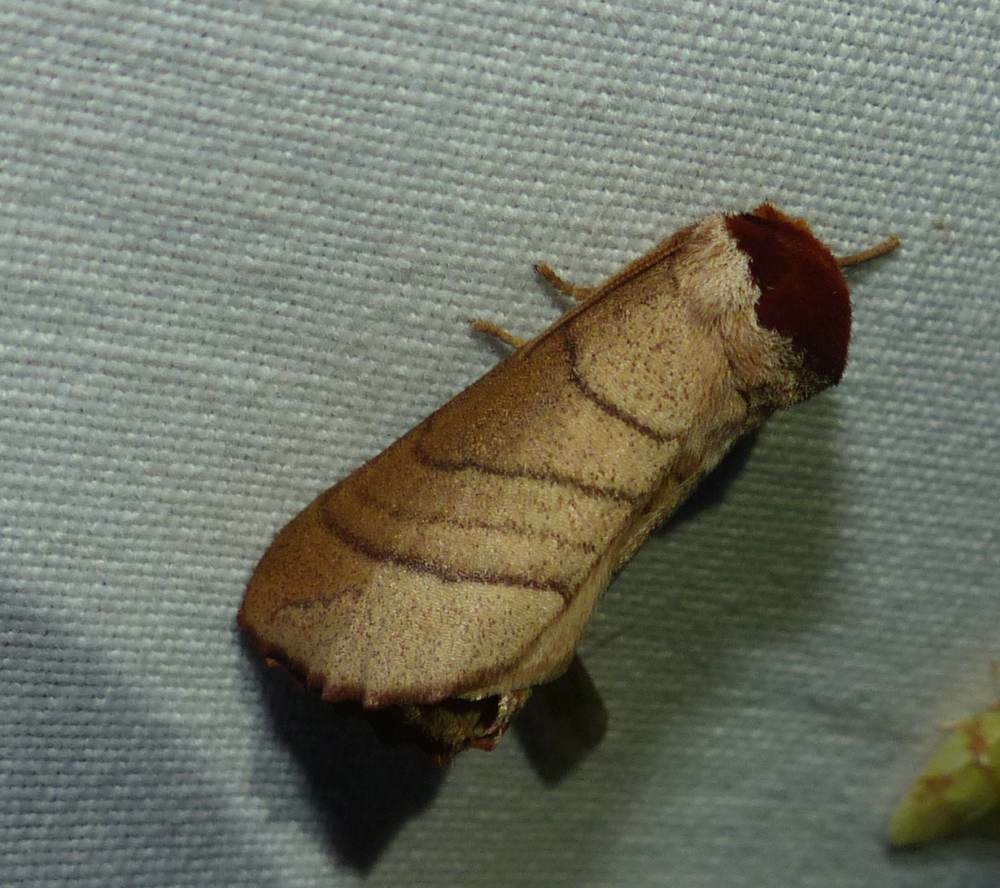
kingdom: Animalia
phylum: Arthropoda
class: Insecta
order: Lepidoptera
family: Notodontidae
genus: Datana
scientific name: Datana ministra
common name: Yellow-necked caterpillar moth
